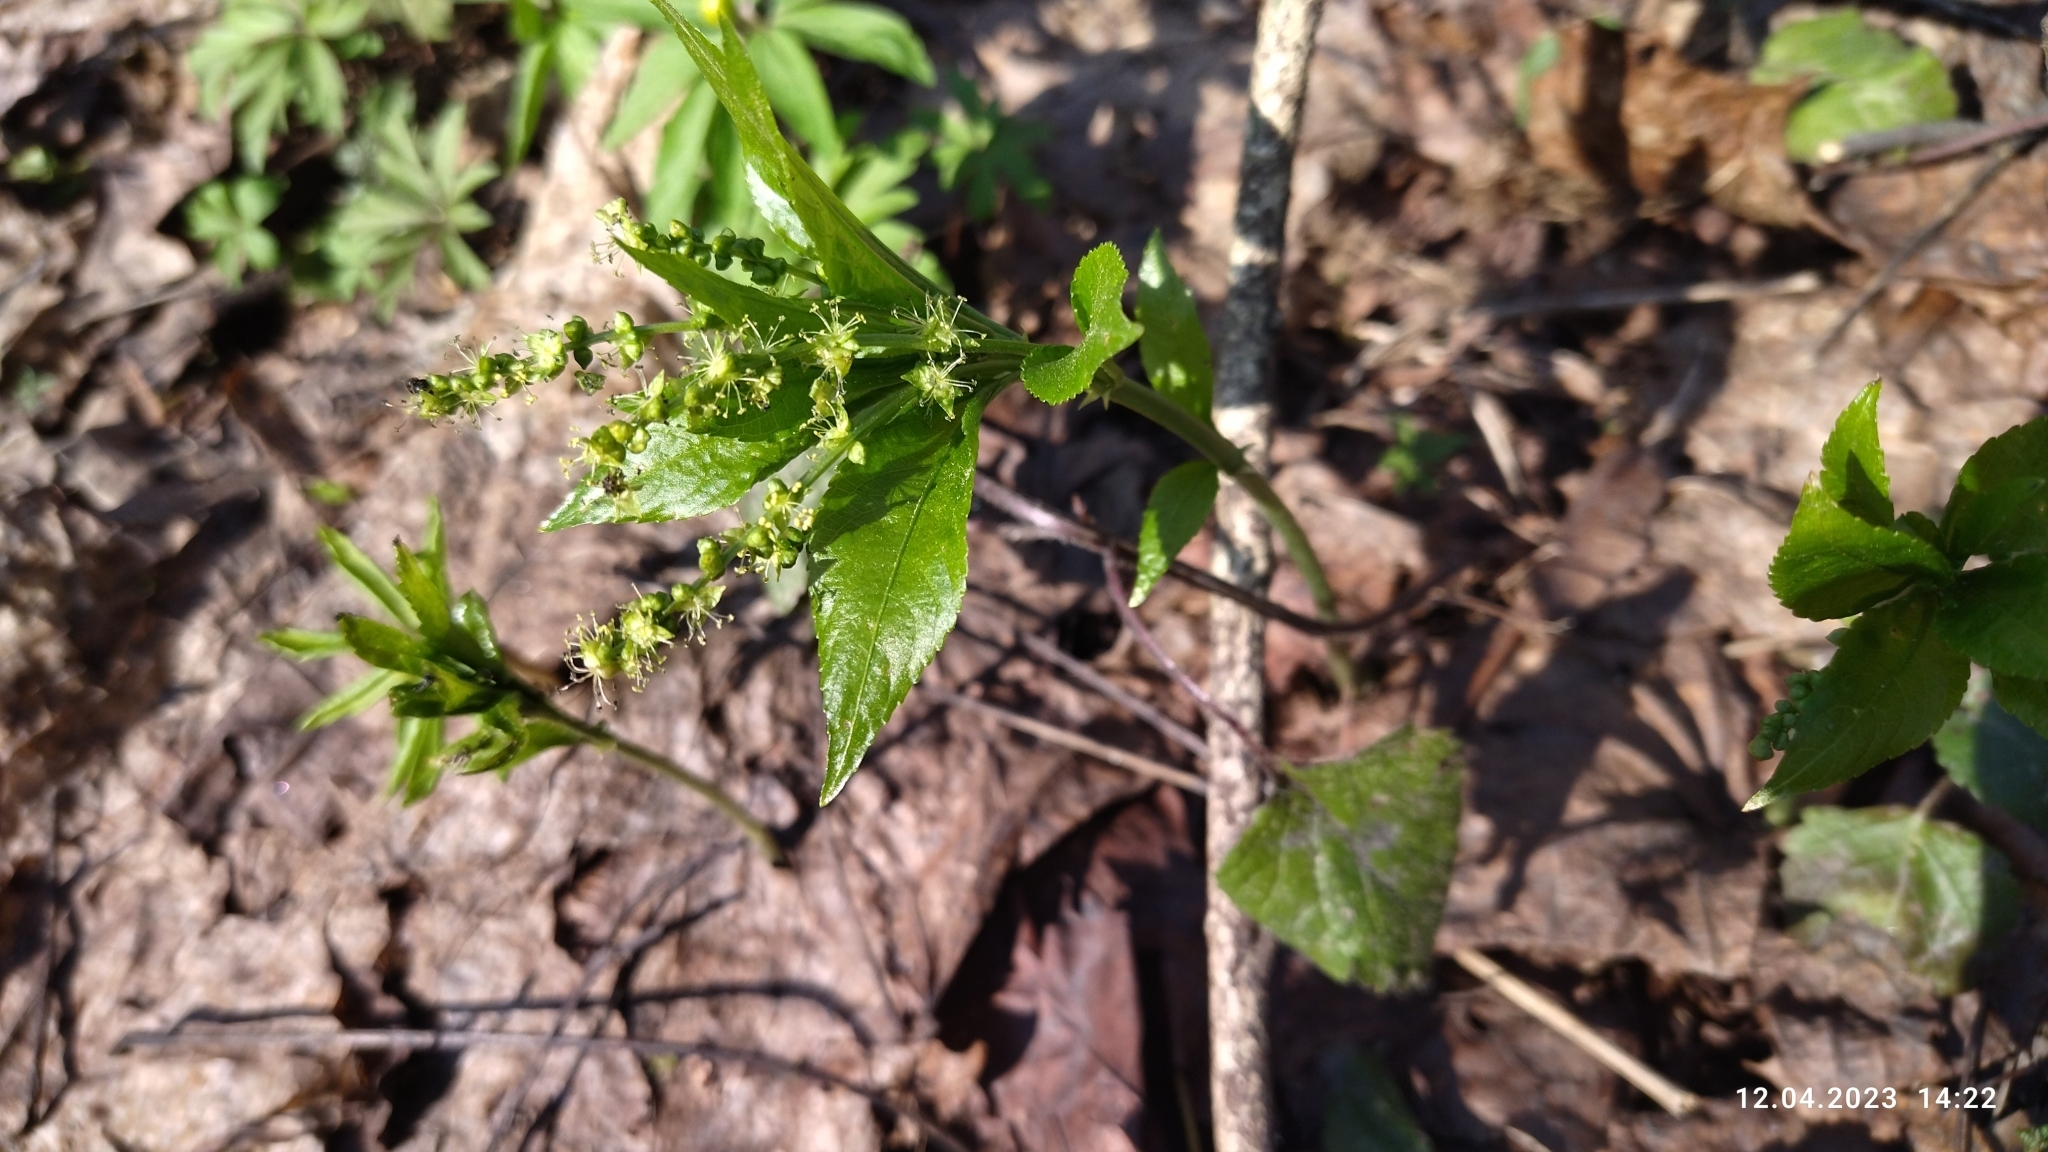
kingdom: Plantae
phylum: Tracheophyta
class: Magnoliopsida
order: Malpighiales
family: Euphorbiaceae
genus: Mercurialis
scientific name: Mercurialis perennis
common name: Dog mercury
